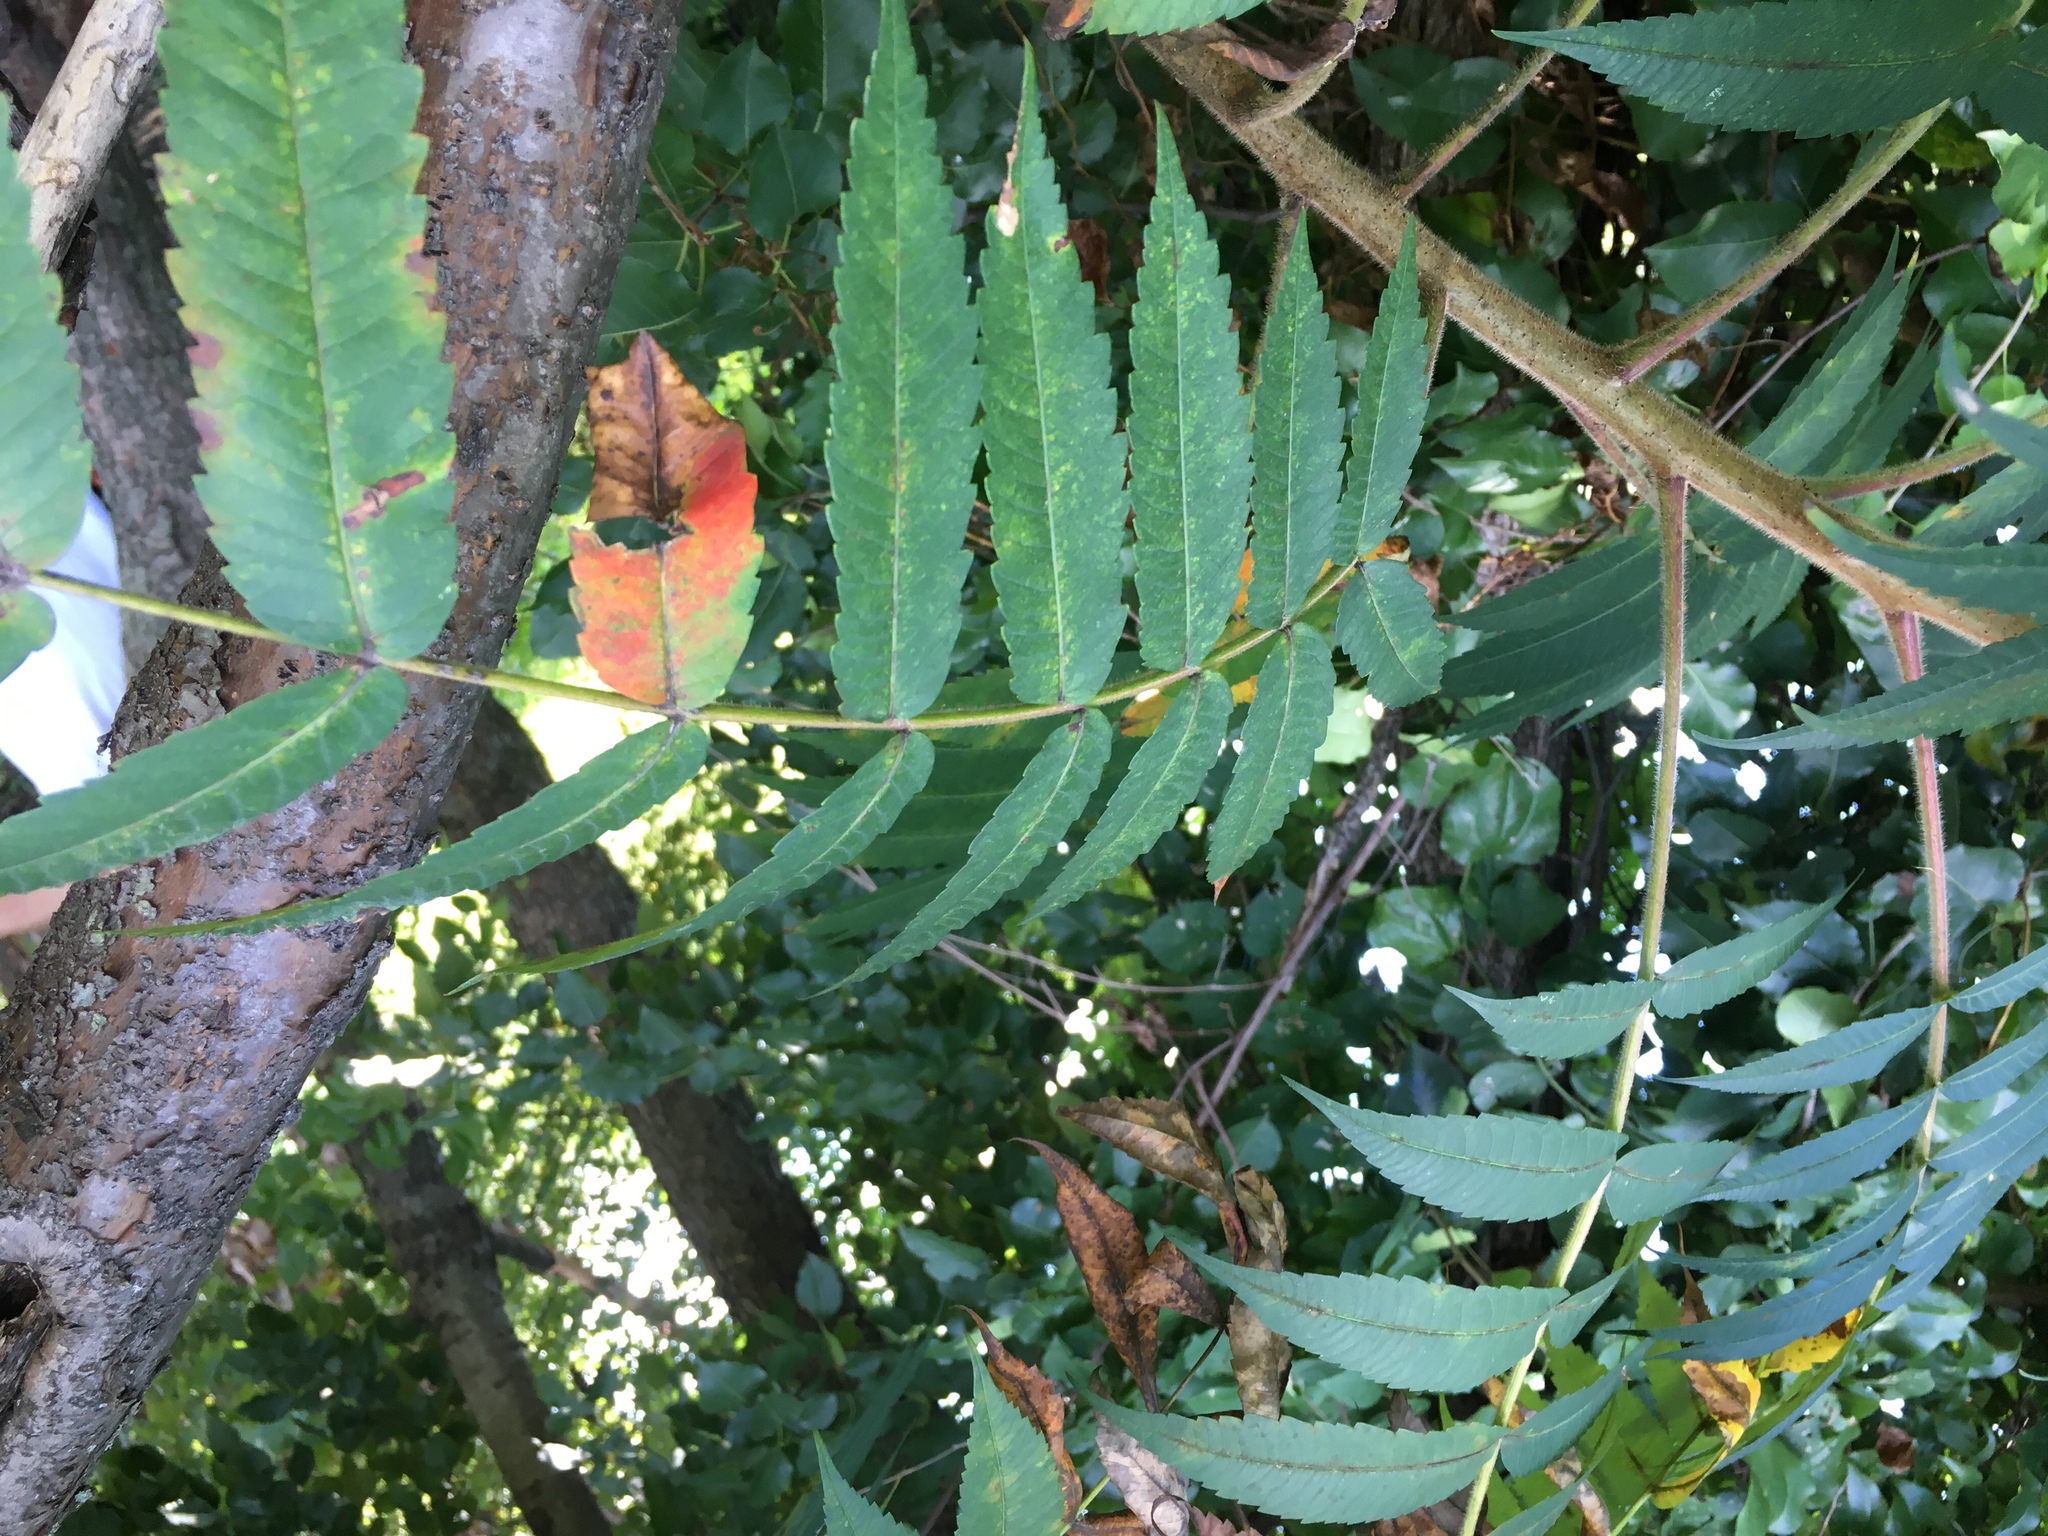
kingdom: Plantae
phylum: Tracheophyta
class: Magnoliopsida
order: Sapindales
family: Anacardiaceae
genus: Rhus
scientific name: Rhus typhina
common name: Staghorn sumac
